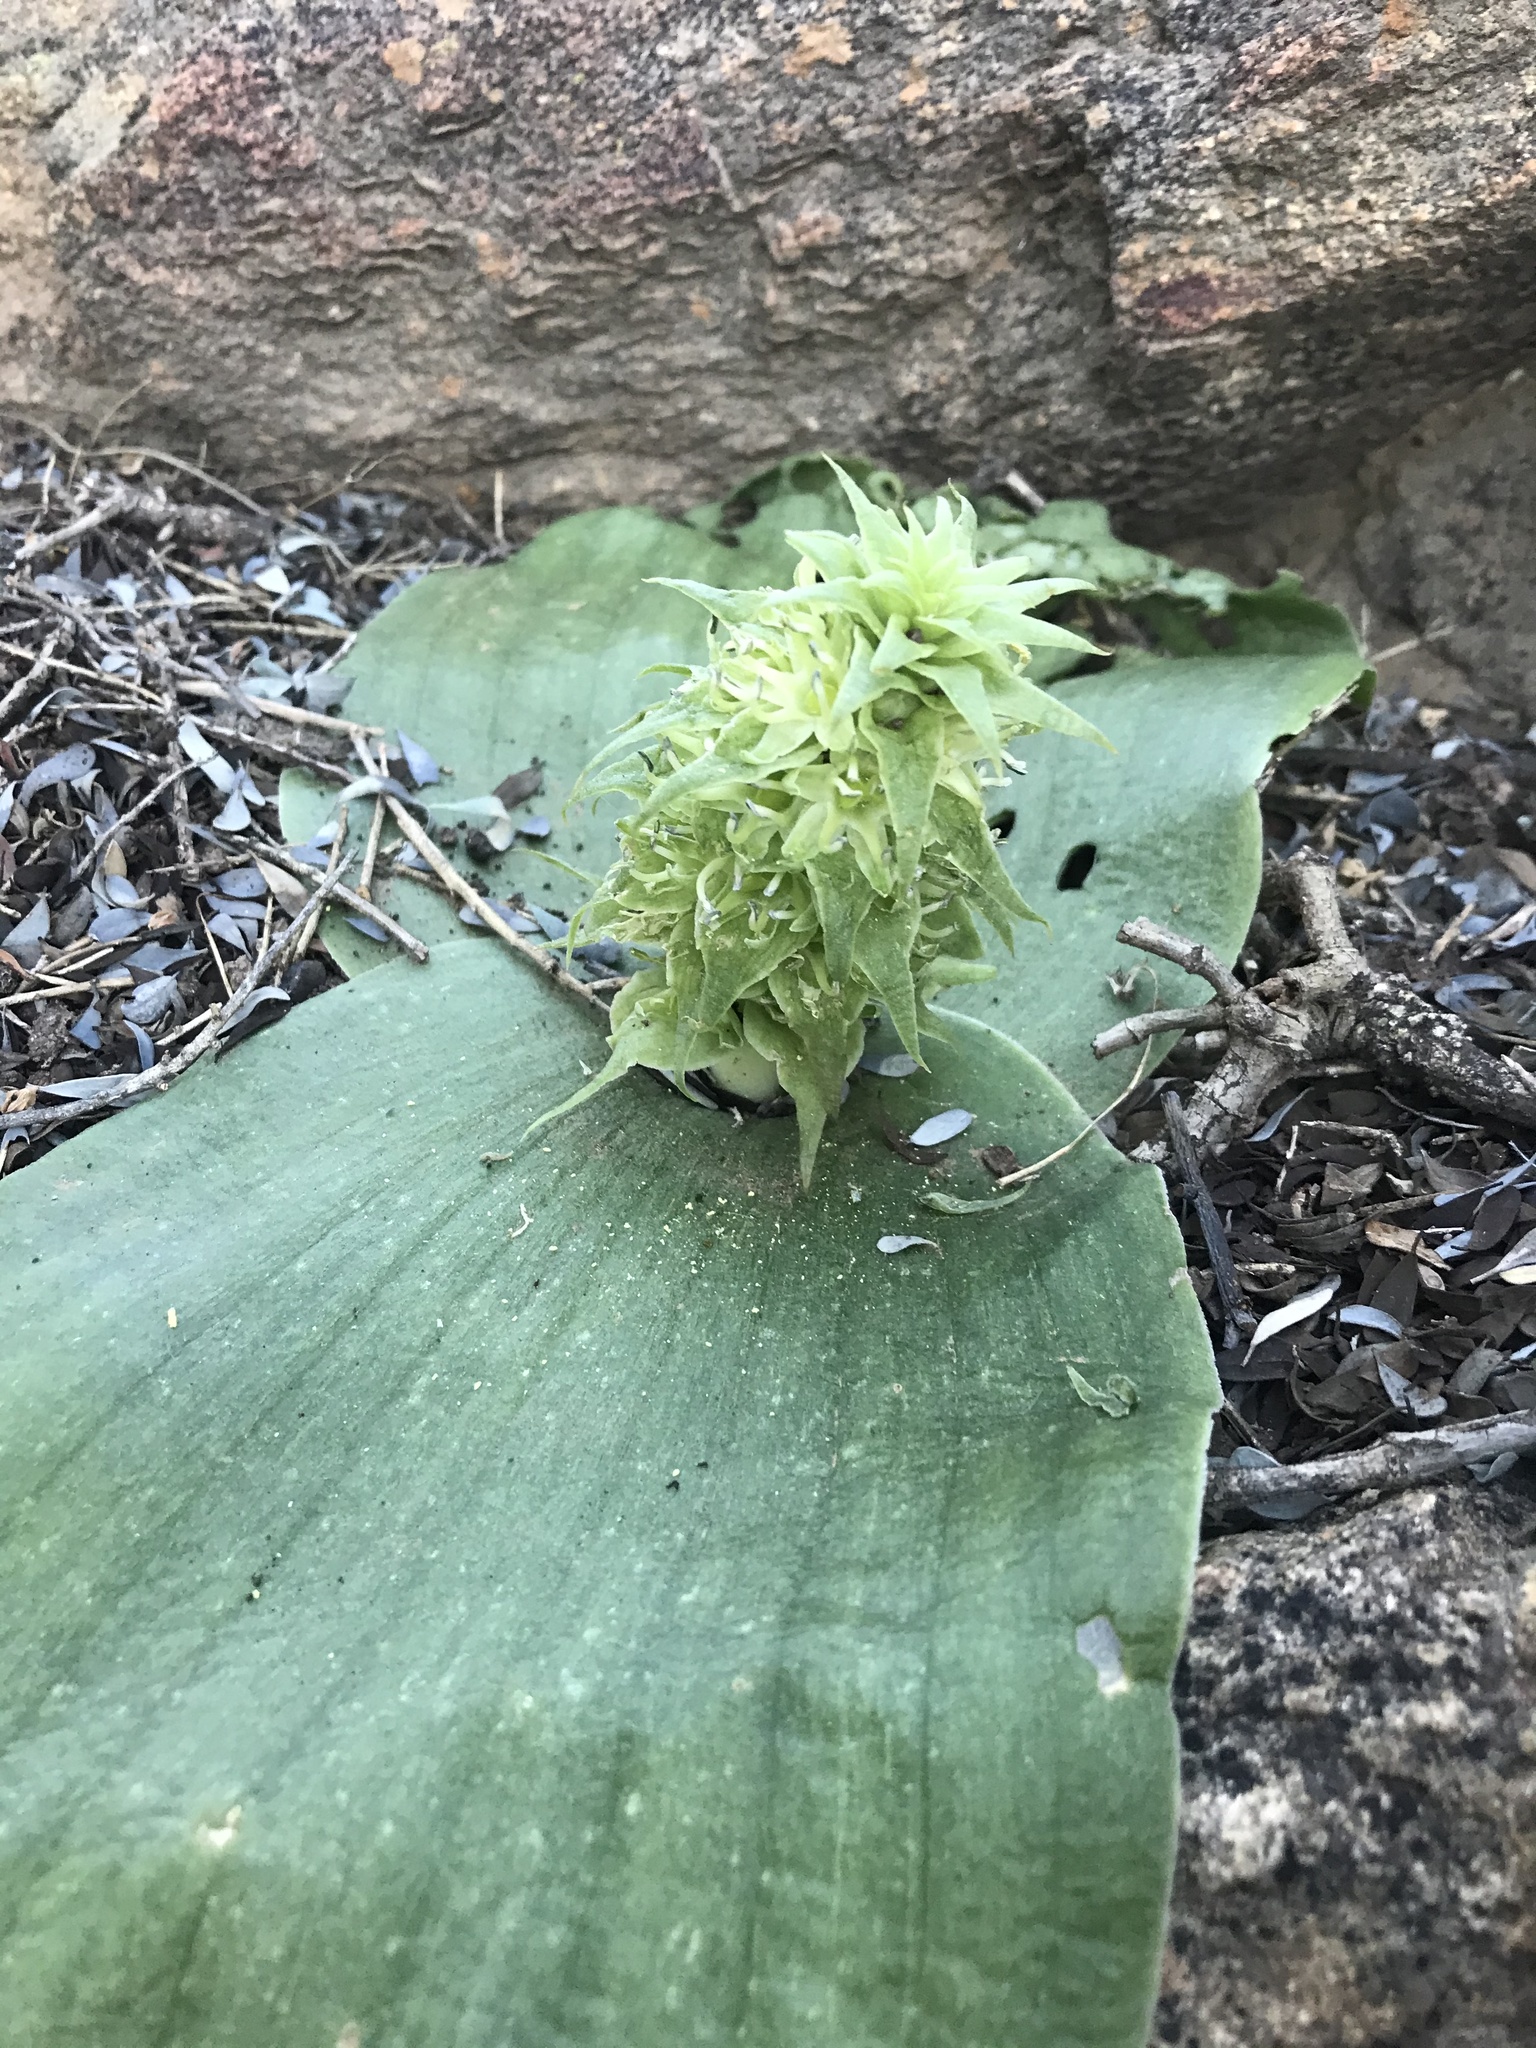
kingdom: Plantae
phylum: Tracheophyta
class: Liliopsida
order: Asparagales
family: Asparagaceae
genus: Massonia
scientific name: Massonia bifolia
